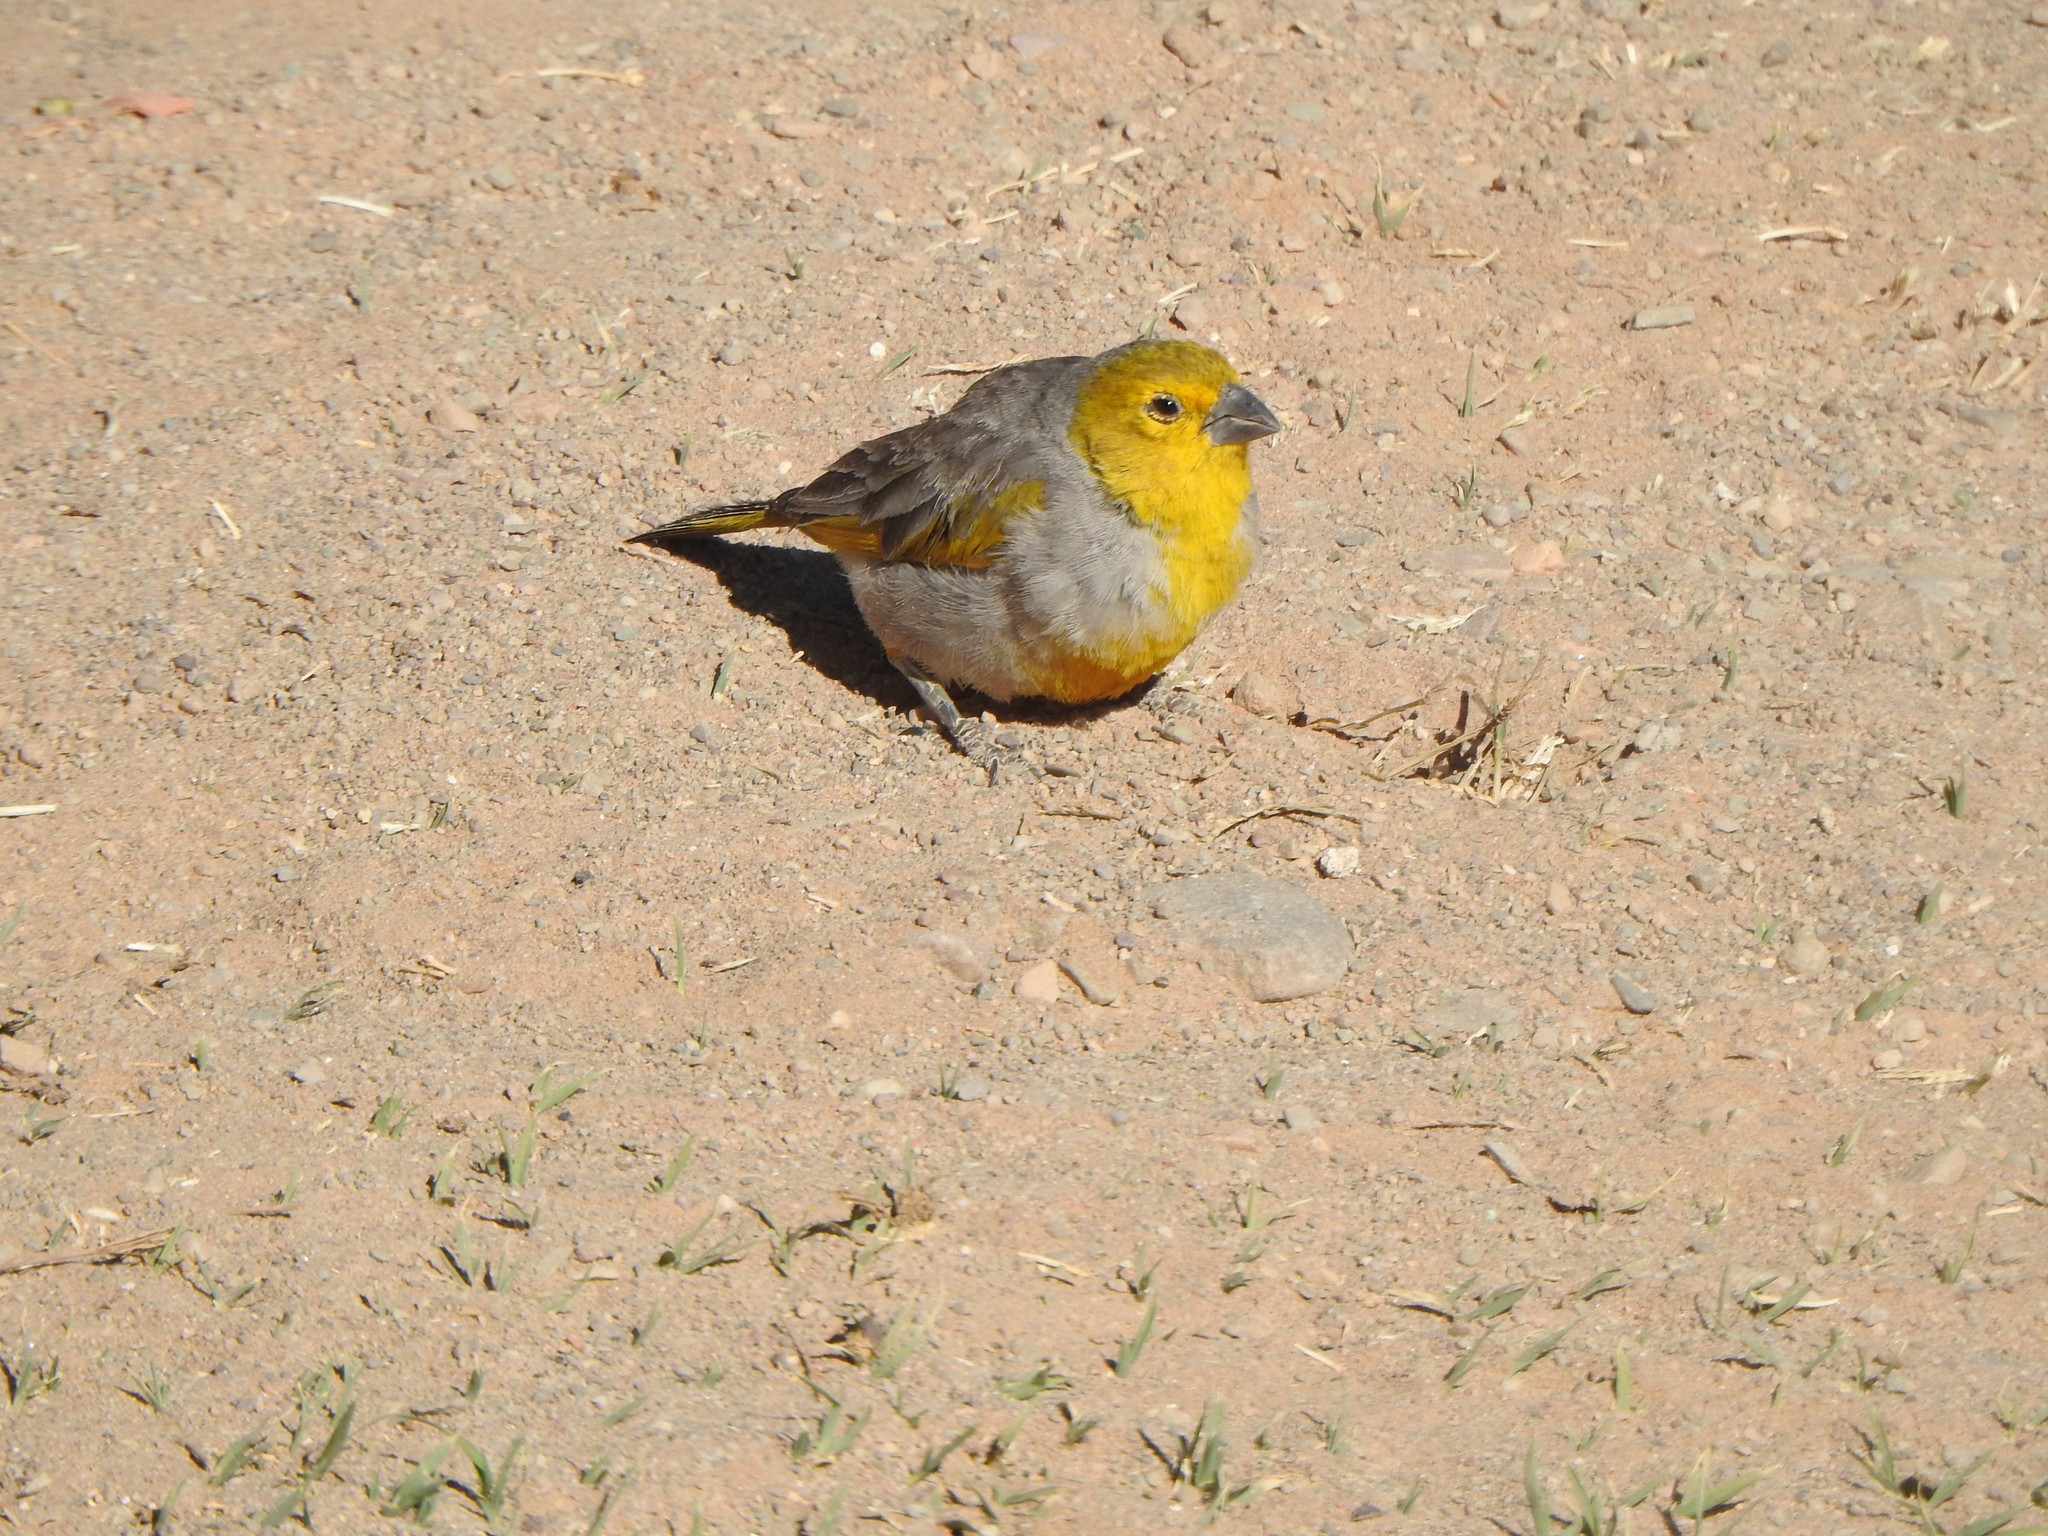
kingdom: Animalia
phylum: Chordata
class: Aves
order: Passeriformes
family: Thraupidae
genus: Sicalis
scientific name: Sicalis luteocephala
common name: Citron-headed yellow finch
